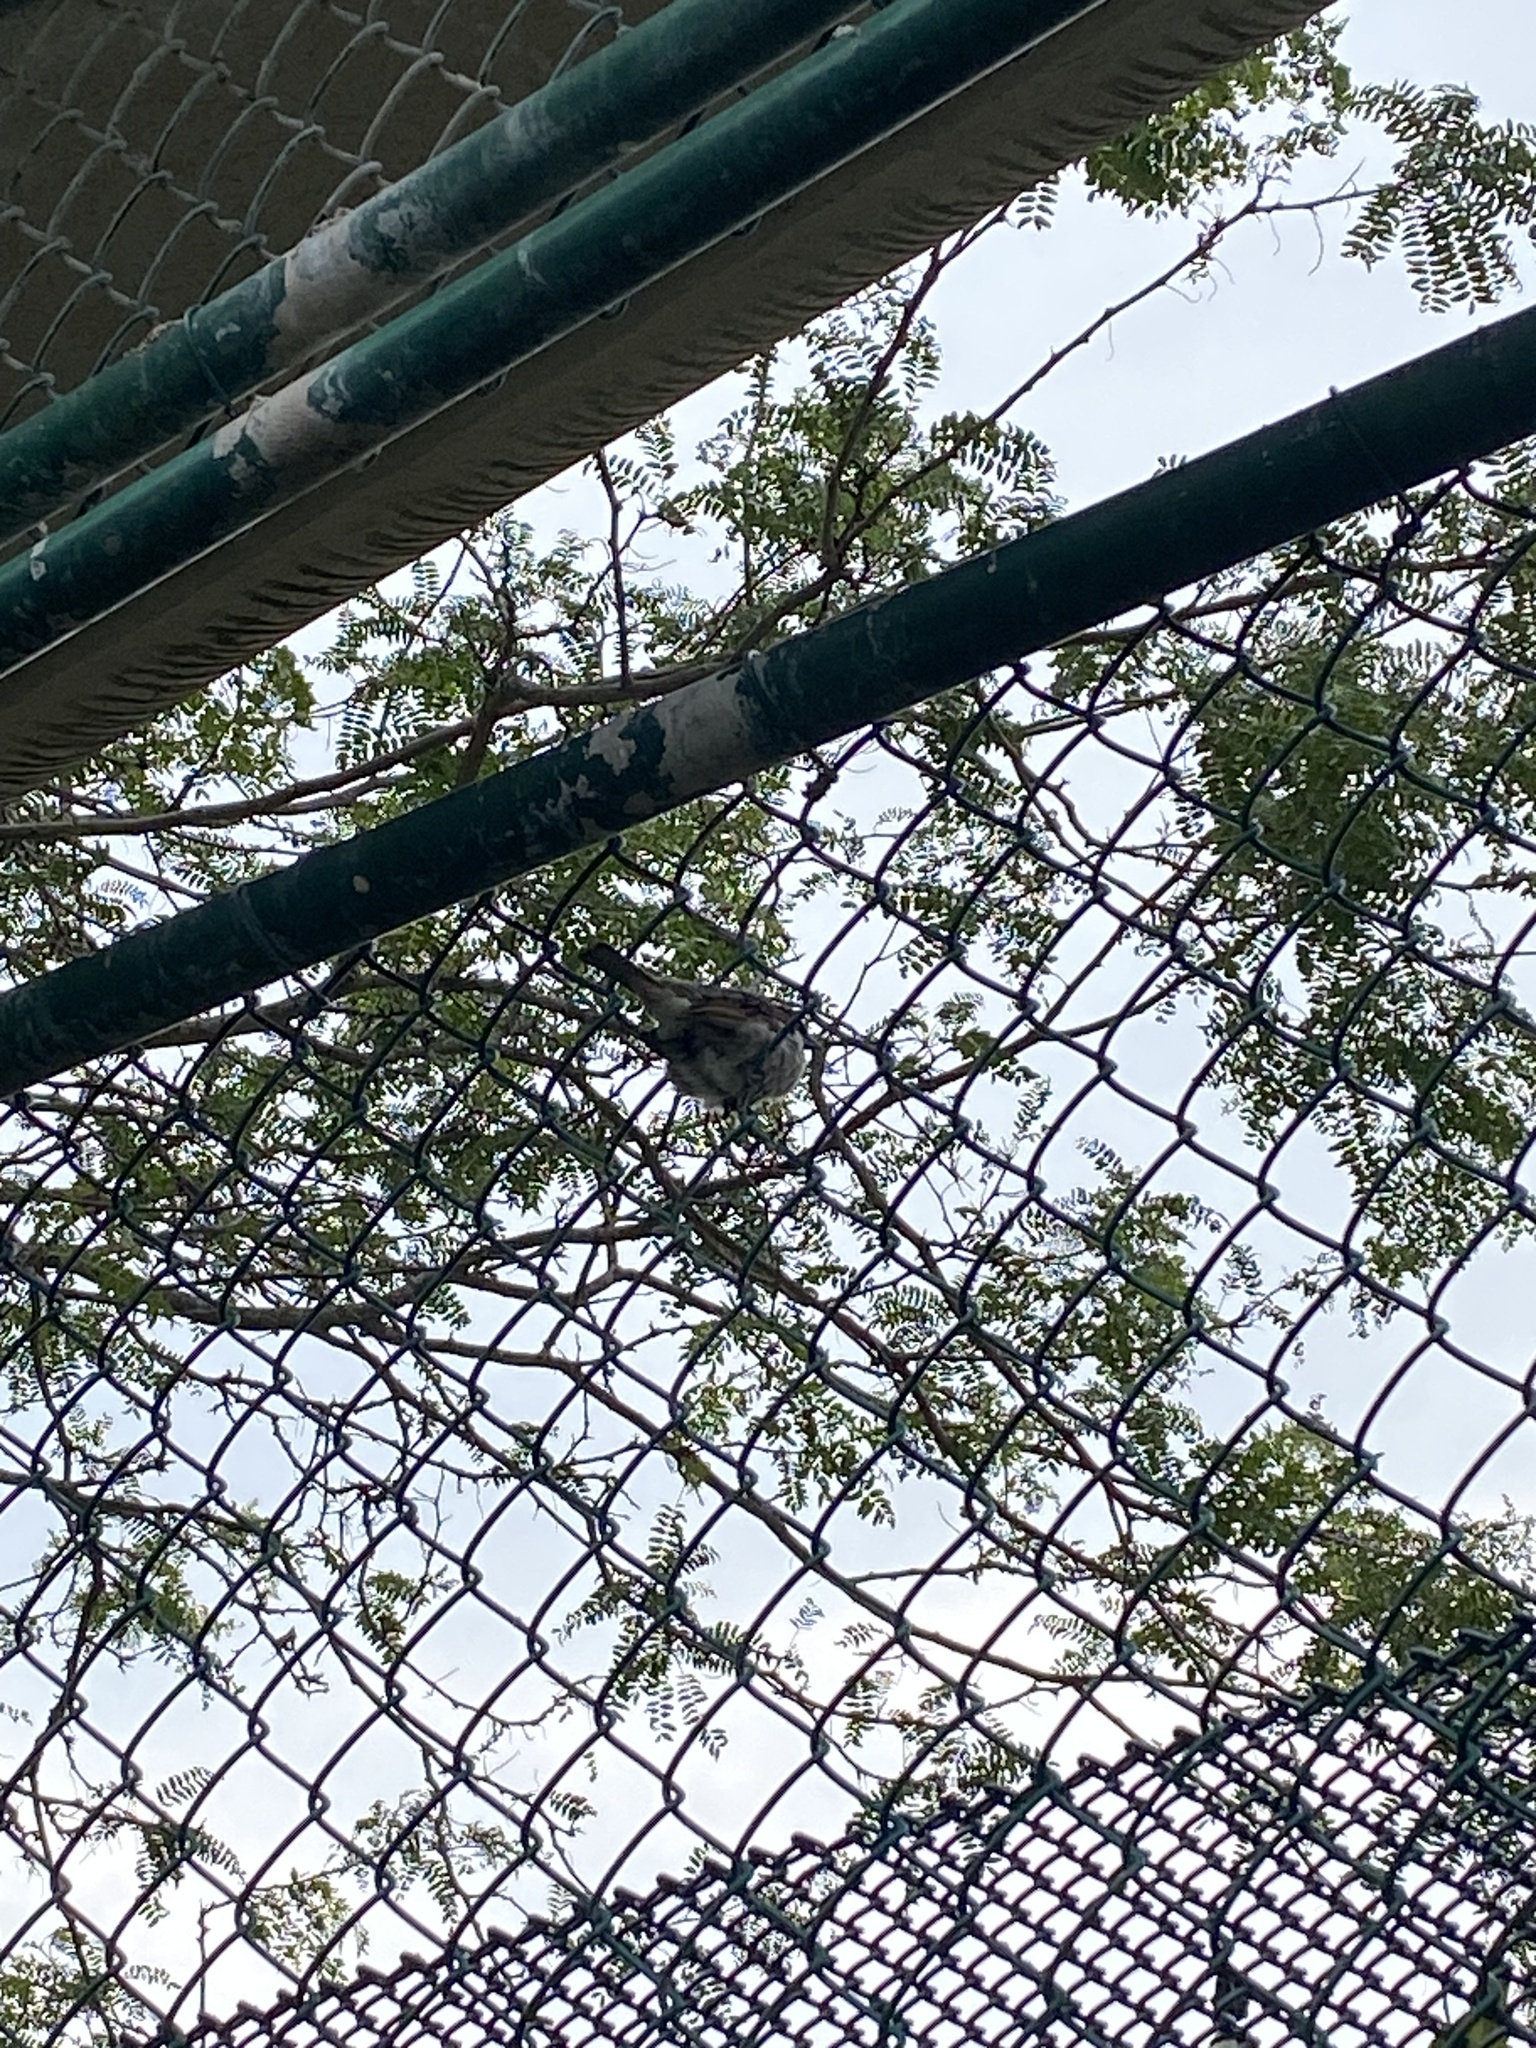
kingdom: Animalia
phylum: Chordata
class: Aves
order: Passeriformes
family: Passeridae
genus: Passer
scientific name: Passer domesticus
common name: House sparrow
